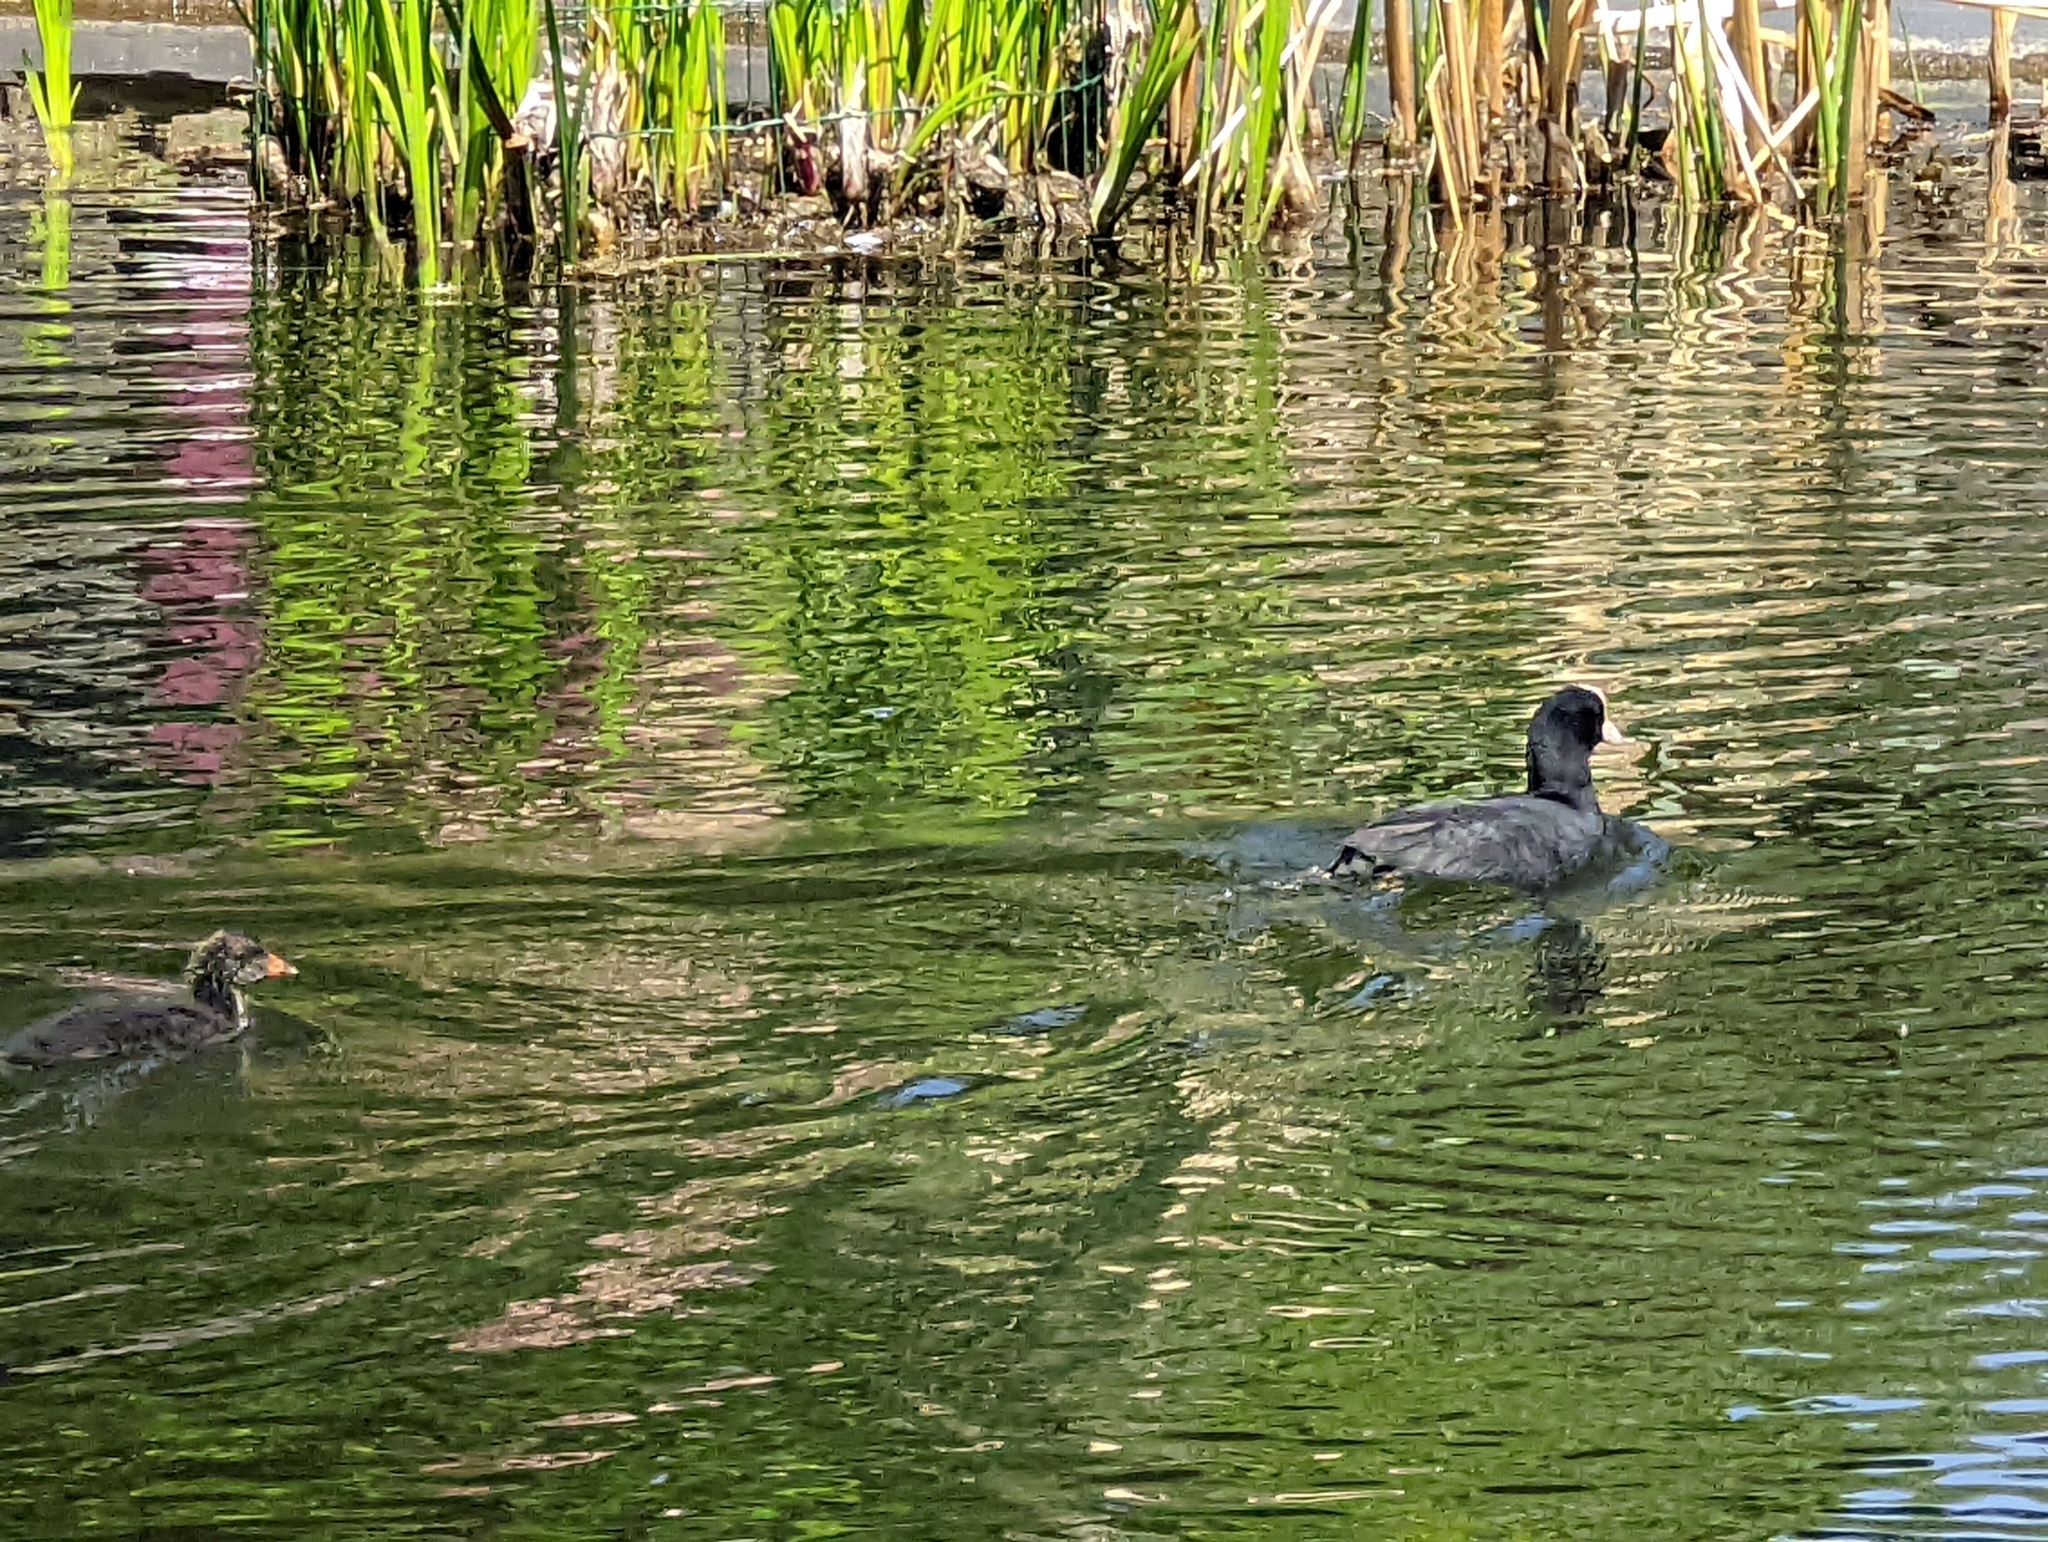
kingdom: Animalia
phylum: Chordata
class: Aves
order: Gruiformes
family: Rallidae
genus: Fulica
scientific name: Fulica atra
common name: Eurasian coot
